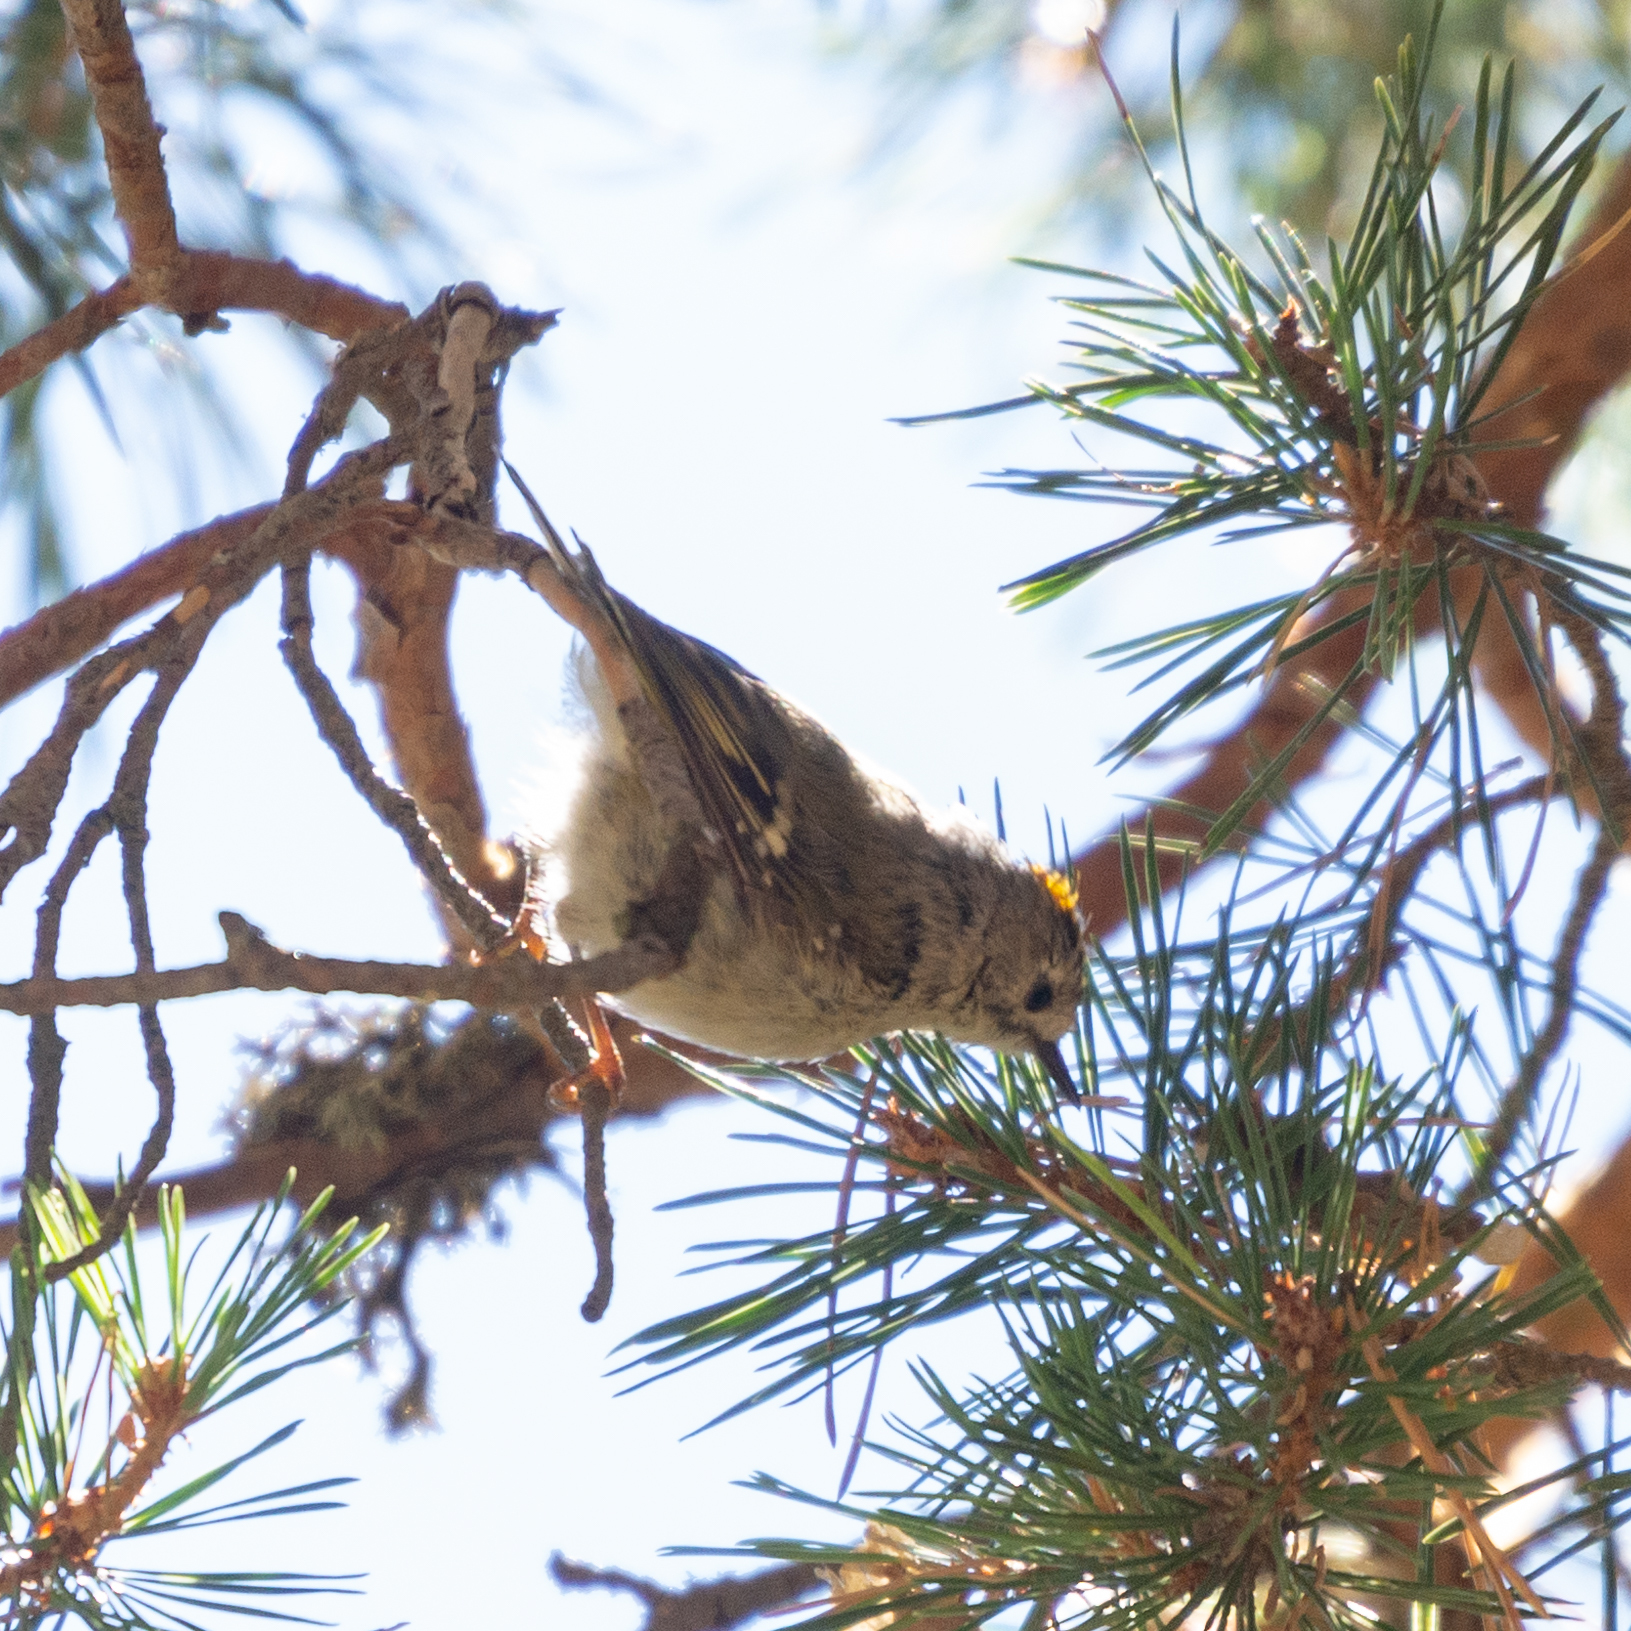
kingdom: Animalia
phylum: Chordata
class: Aves
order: Passeriformes
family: Regulidae
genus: Regulus
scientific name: Regulus regulus
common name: Goldcrest
